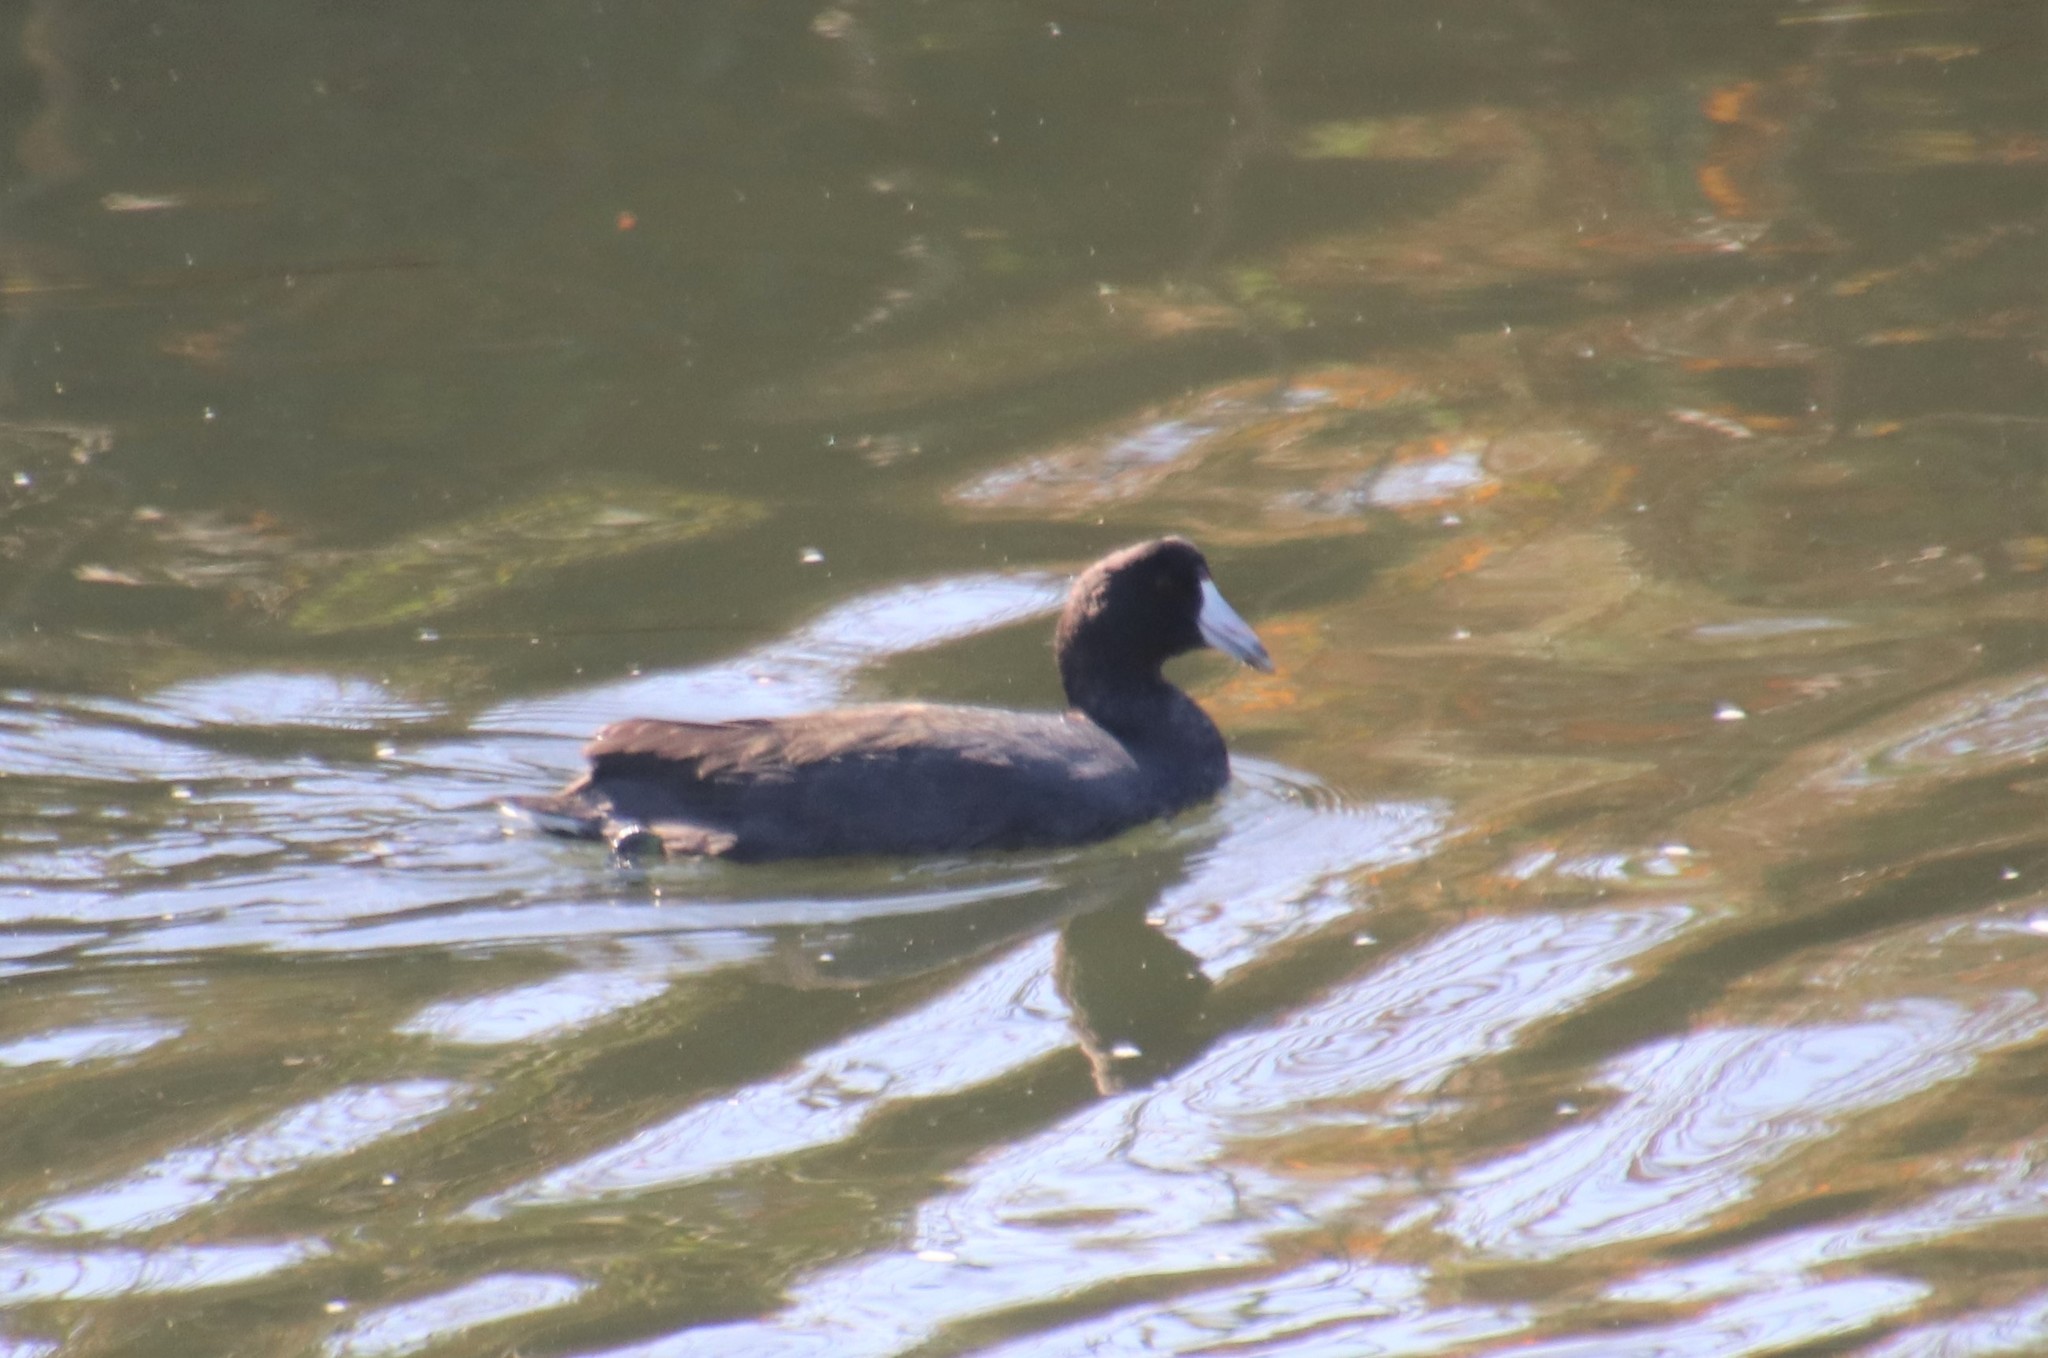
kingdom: Animalia
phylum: Chordata
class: Aves
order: Gruiformes
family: Rallidae
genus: Fulica
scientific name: Fulica americana
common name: American coot
